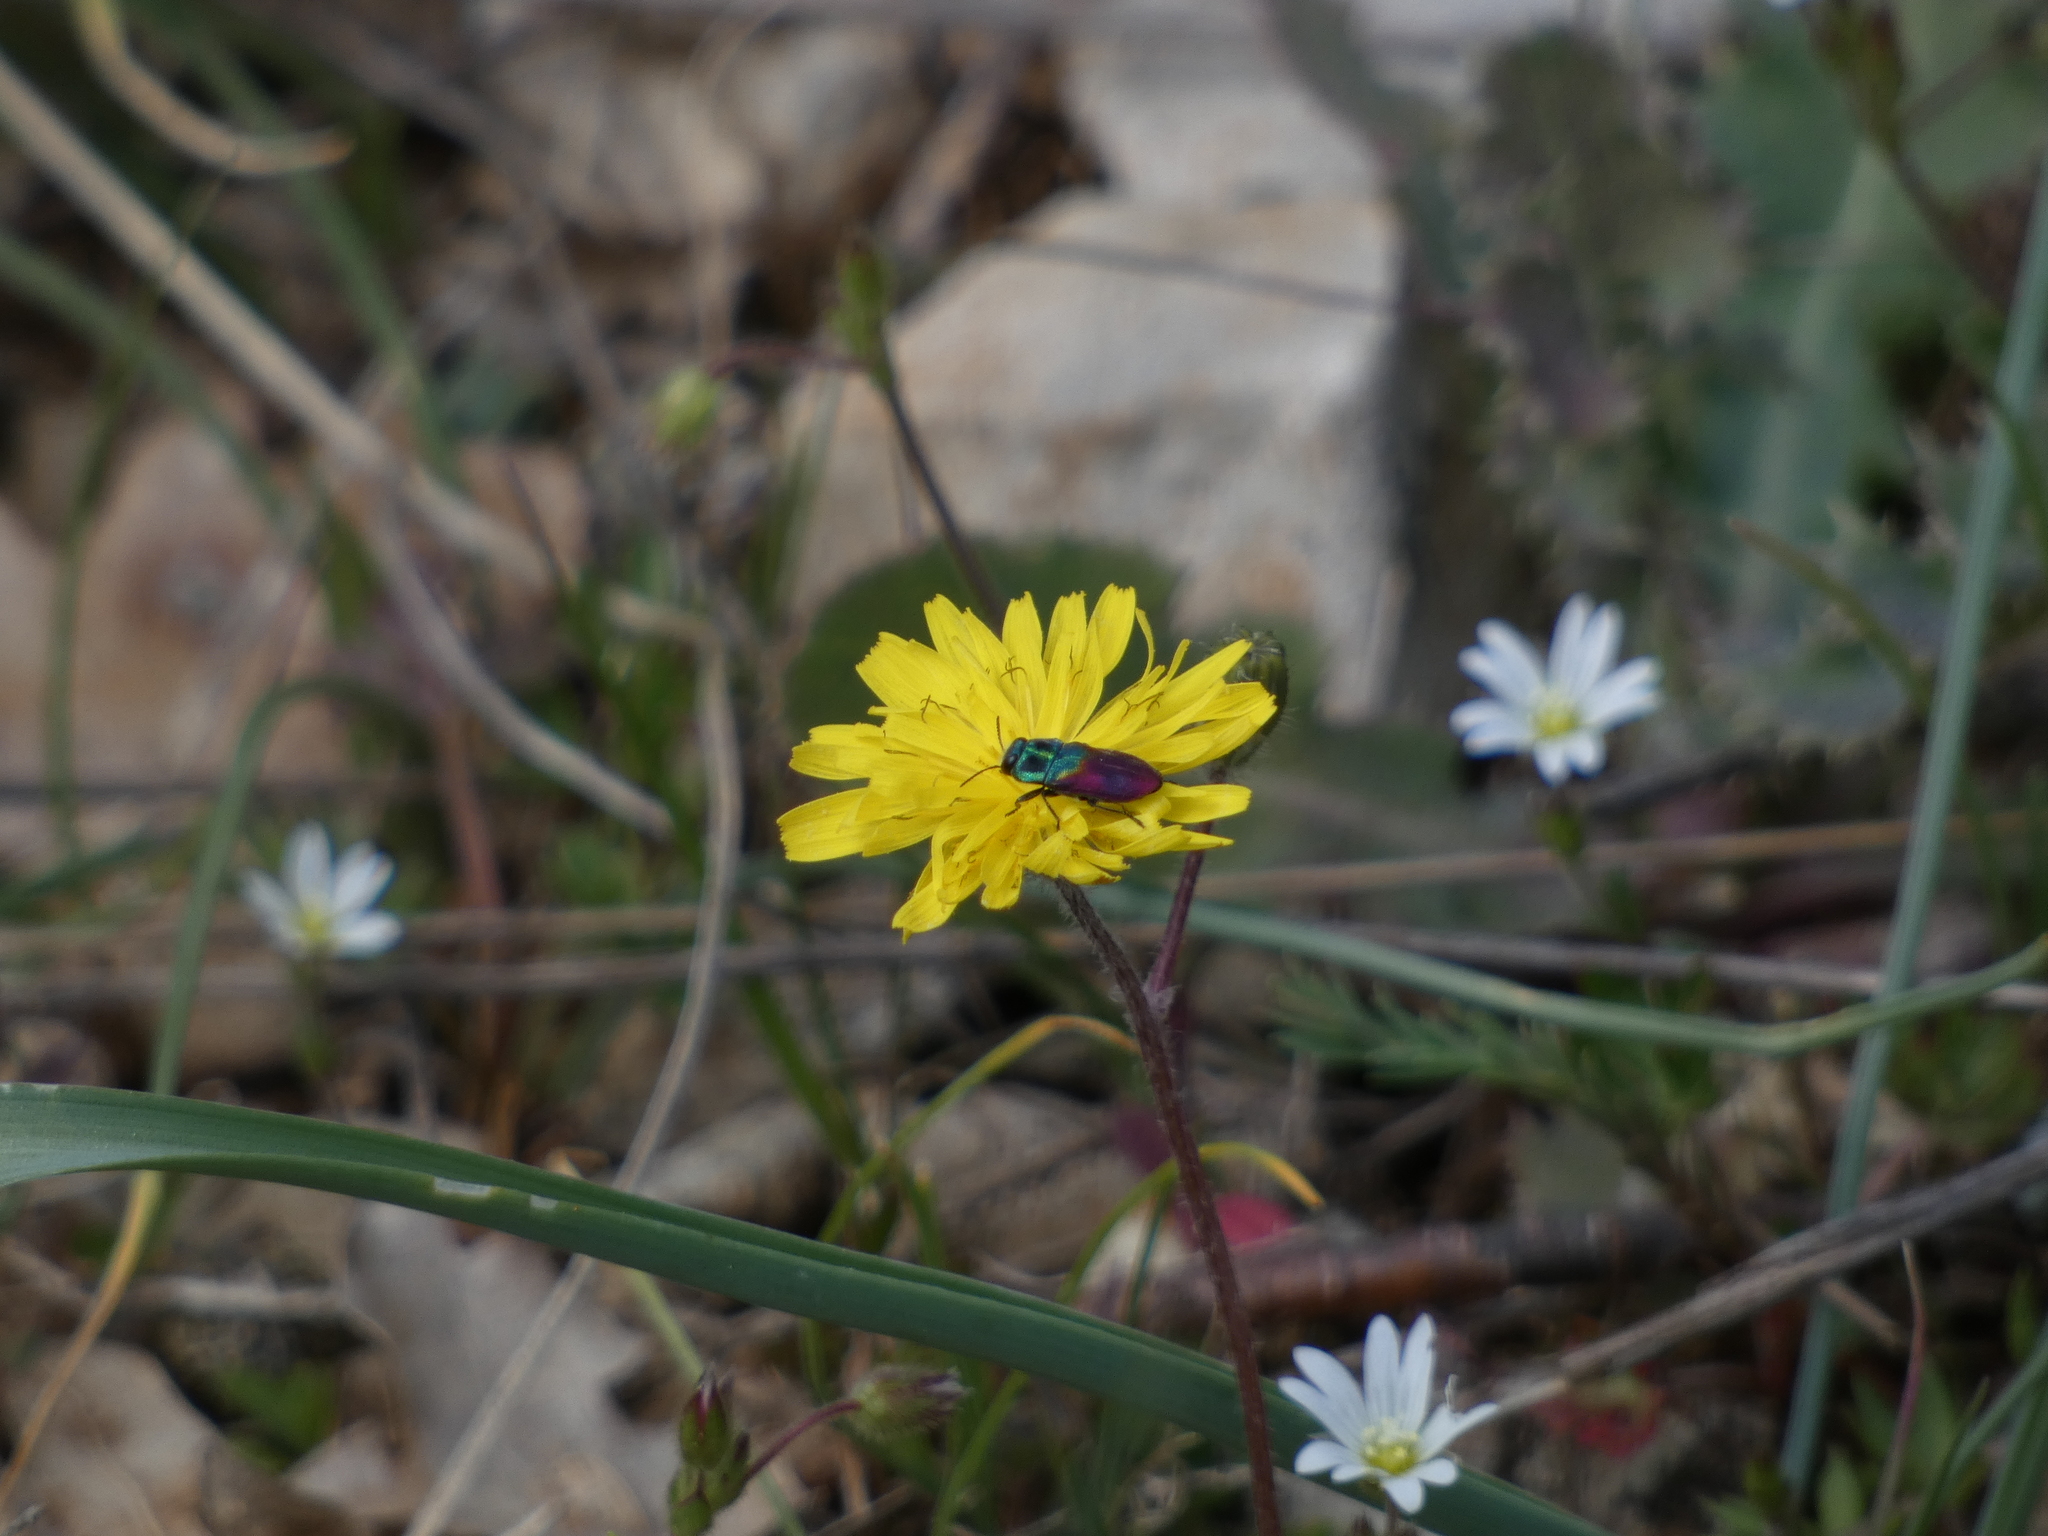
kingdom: Animalia
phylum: Arthropoda
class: Insecta
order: Coleoptera
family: Buprestidae
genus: Anthaxia
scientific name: Anthaxia salicis
